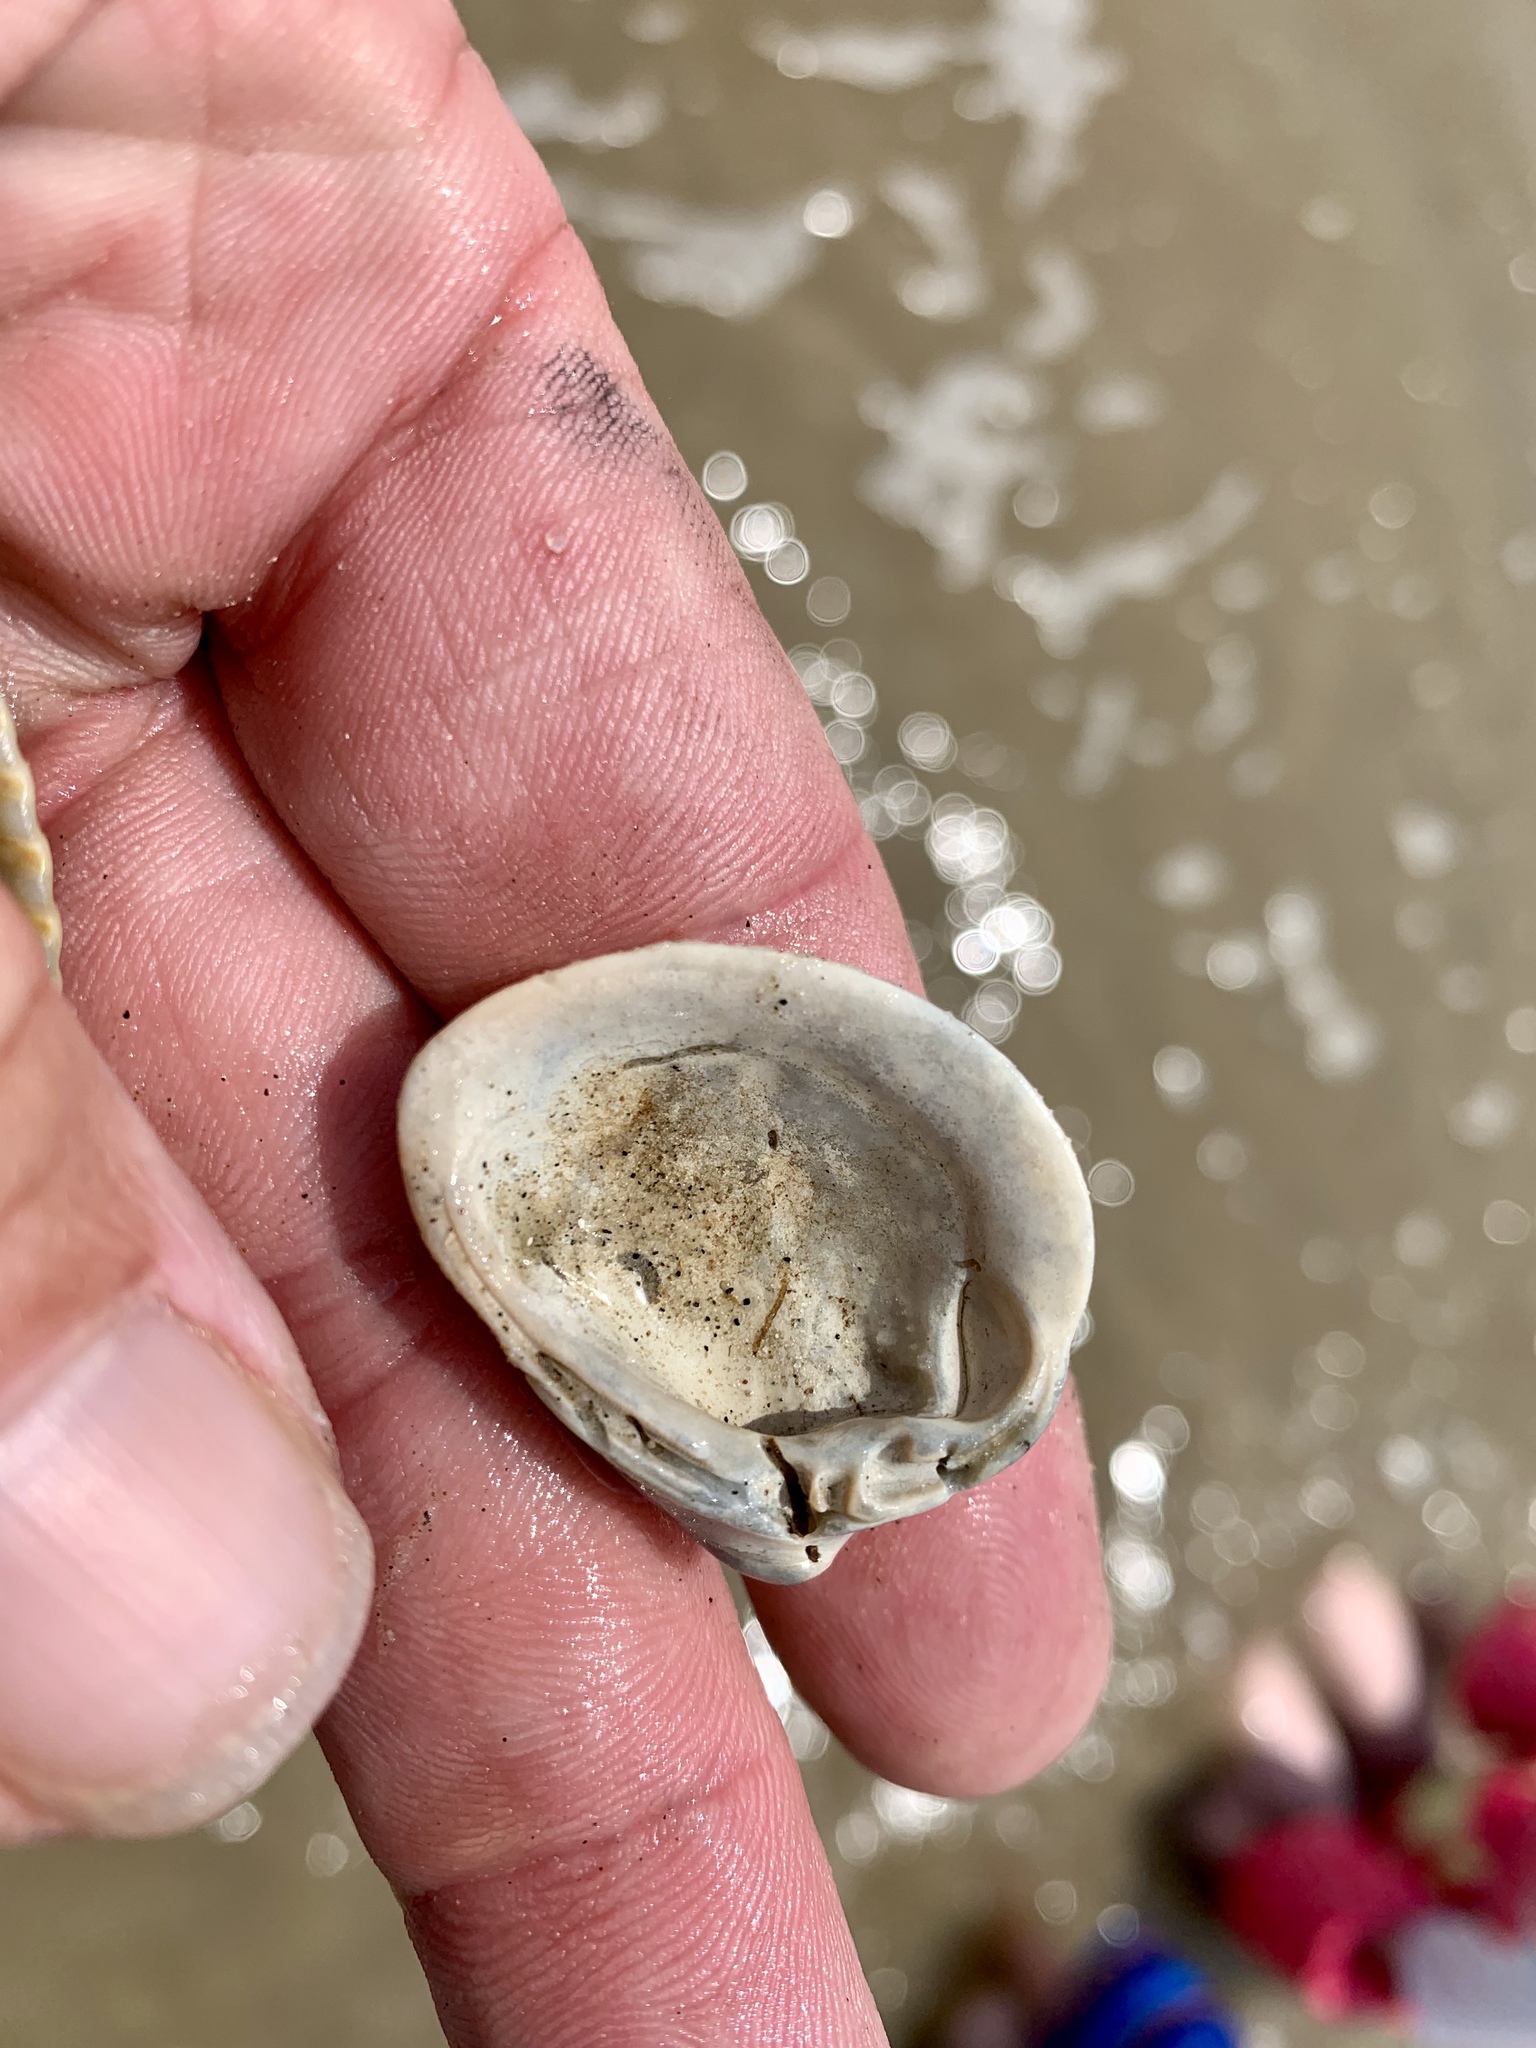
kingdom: Animalia
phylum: Mollusca
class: Bivalvia
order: Venerida
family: Mactridae
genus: Rangia
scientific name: Rangia cuneata
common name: Atlantic rangia
